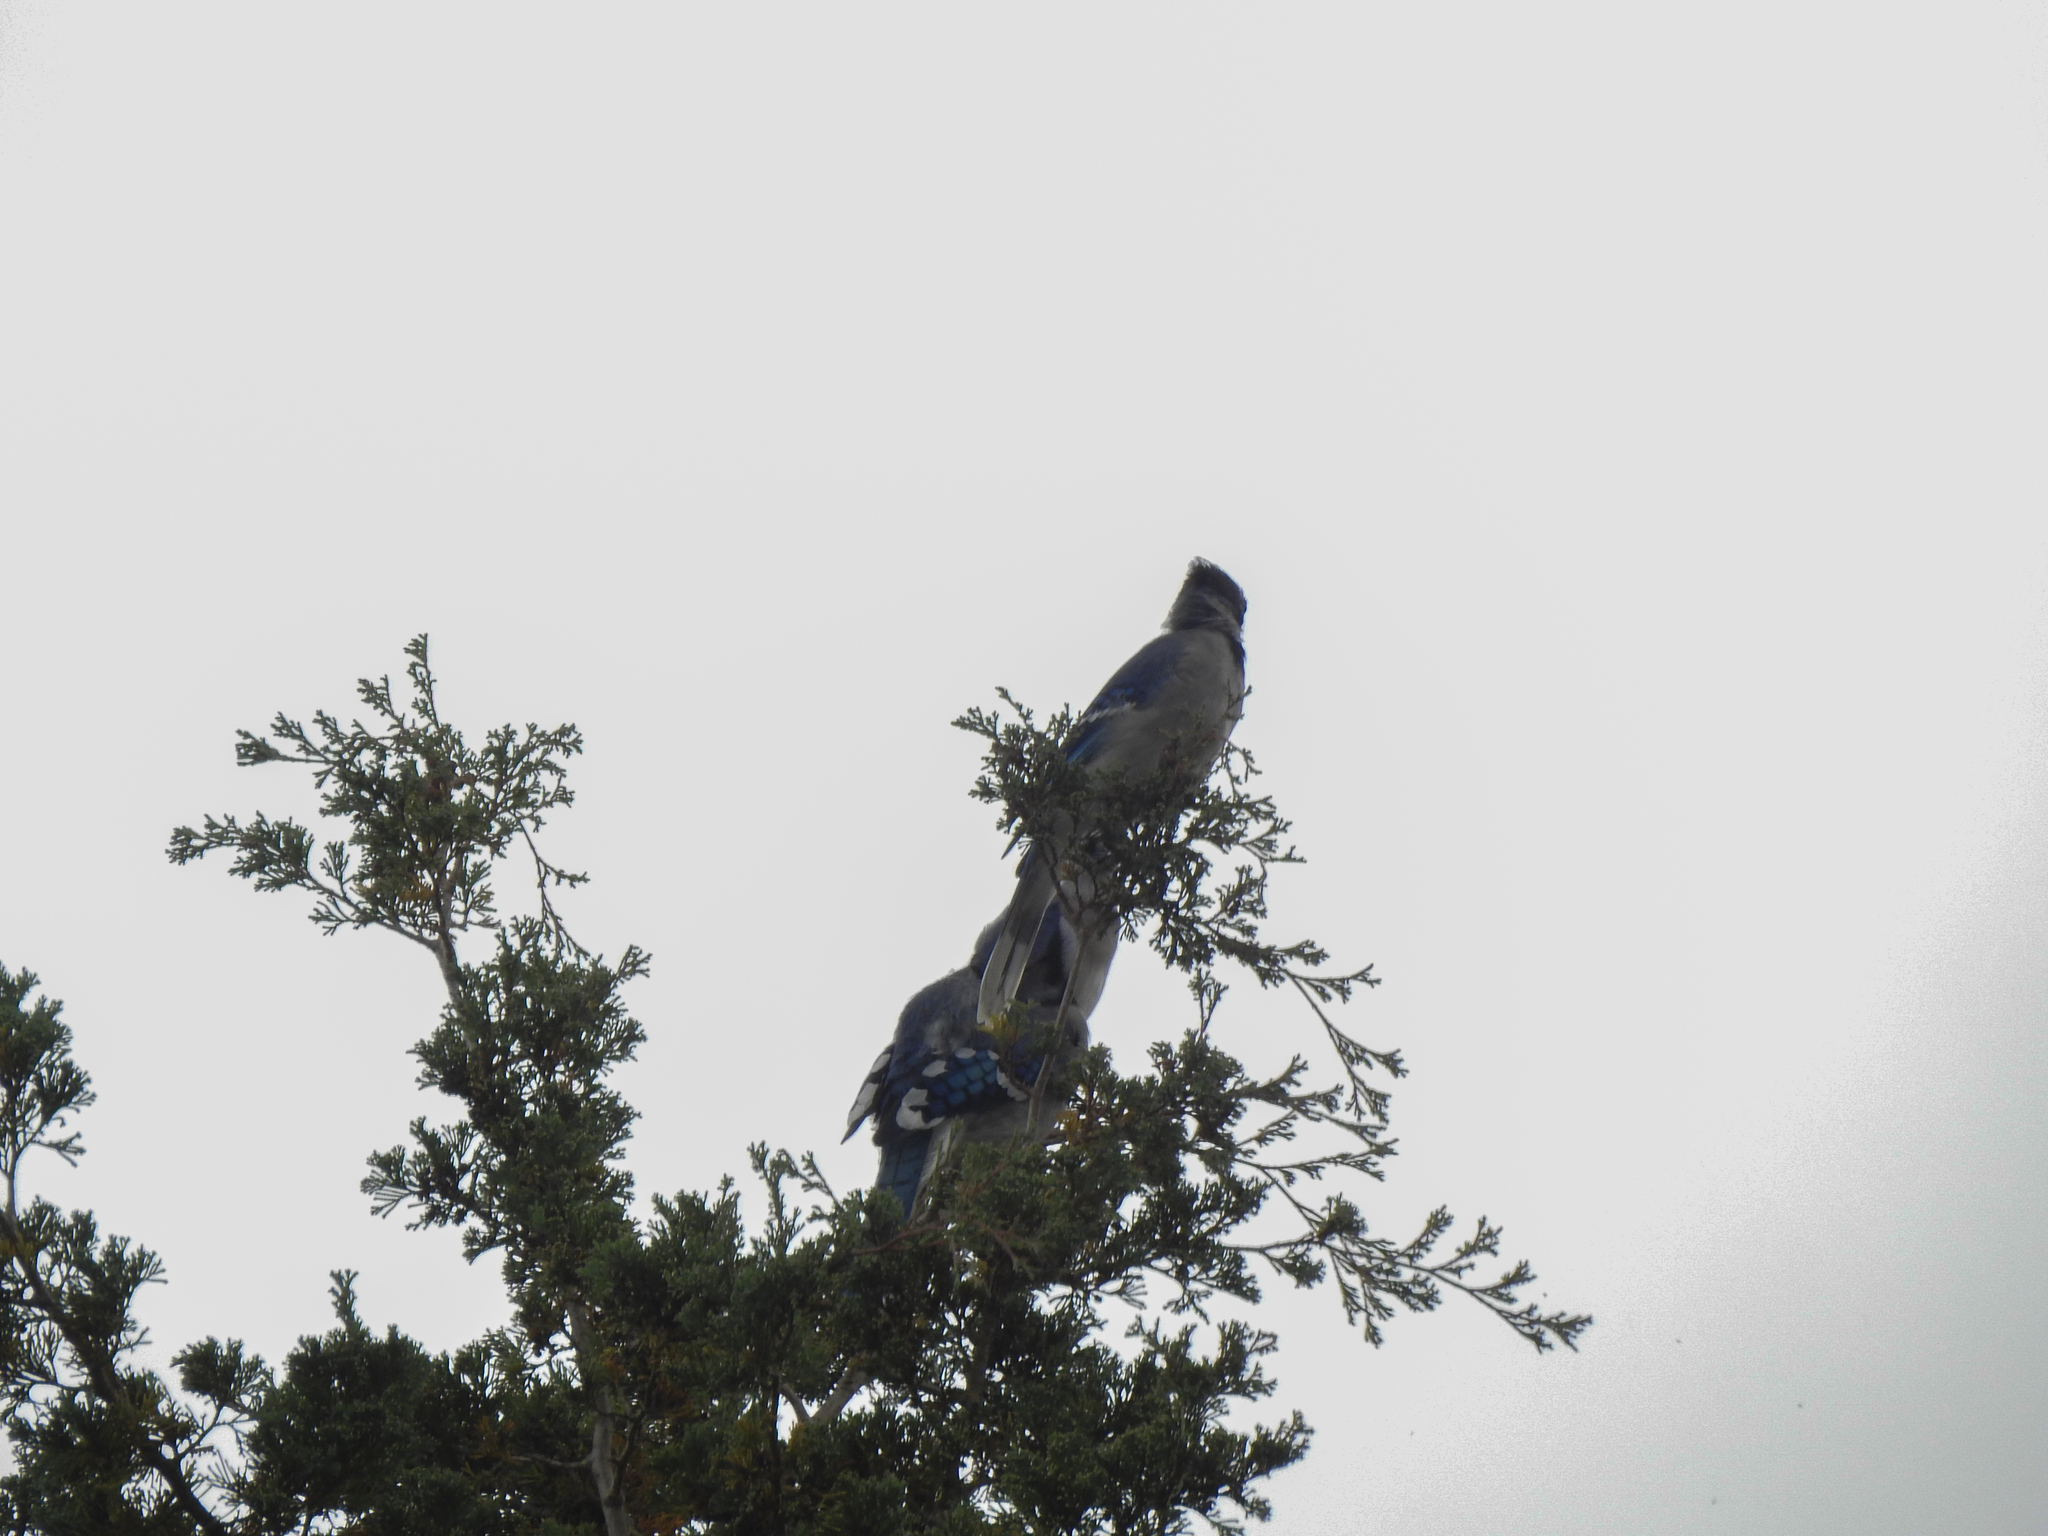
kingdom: Animalia
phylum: Chordata
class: Aves
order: Passeriformes
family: Corvidae
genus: Cyanocitta
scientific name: Cyanocitta cristata
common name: Blue jay
